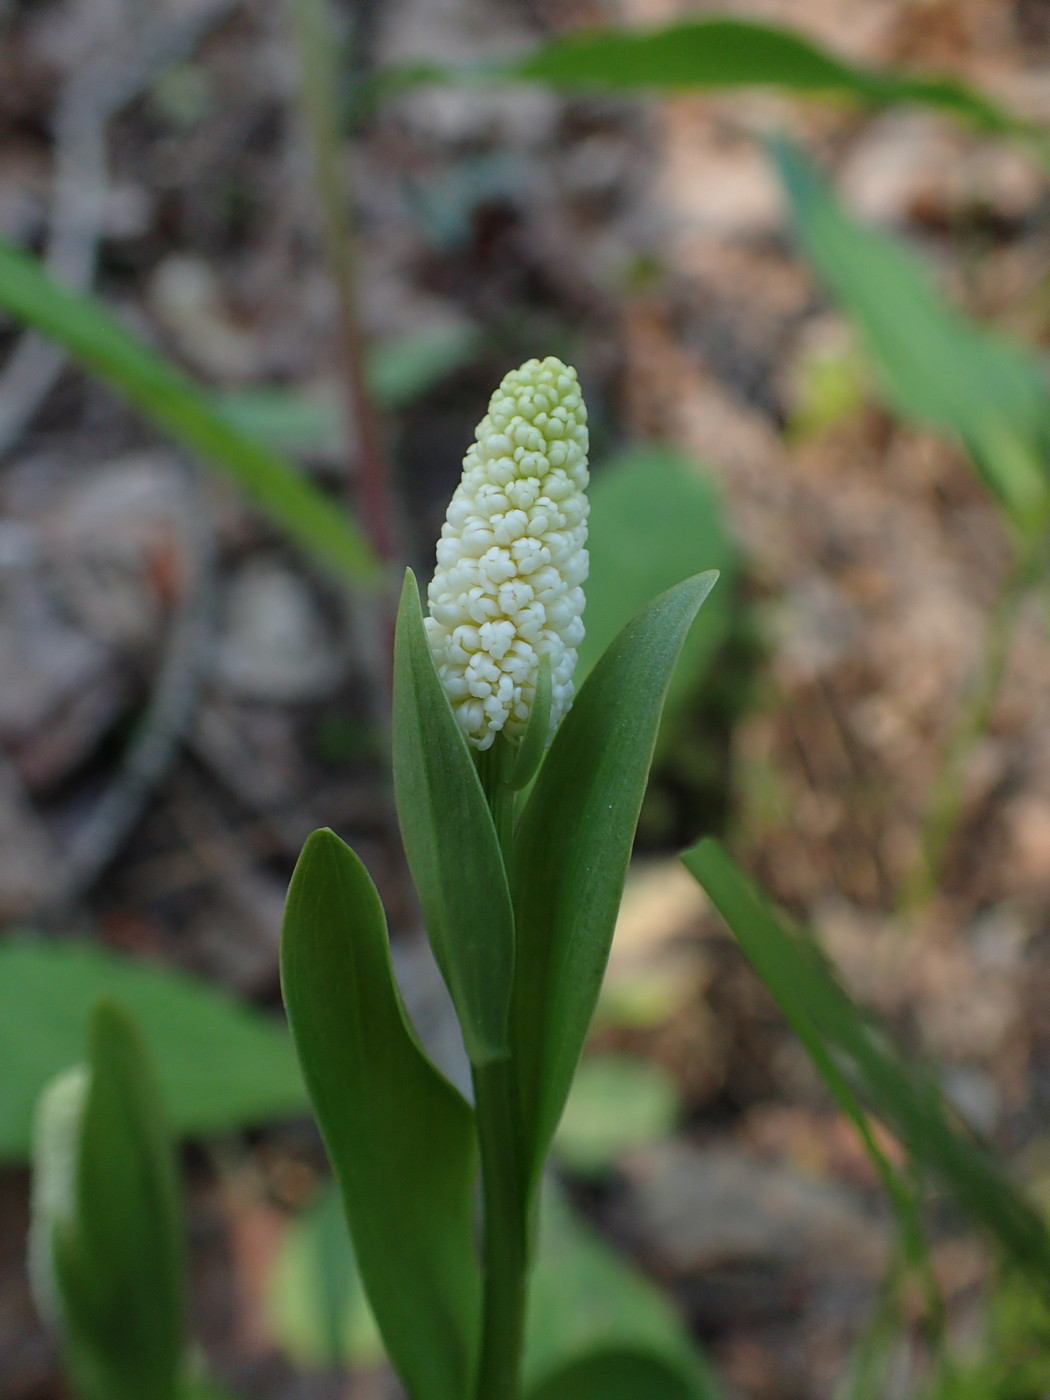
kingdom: Plantae
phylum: Tracheophyta
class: Liliopsida
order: Liliales
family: Melanthiaceae
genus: Chamaelirium
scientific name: Chamaelirium luteum
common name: Fairy-wand
